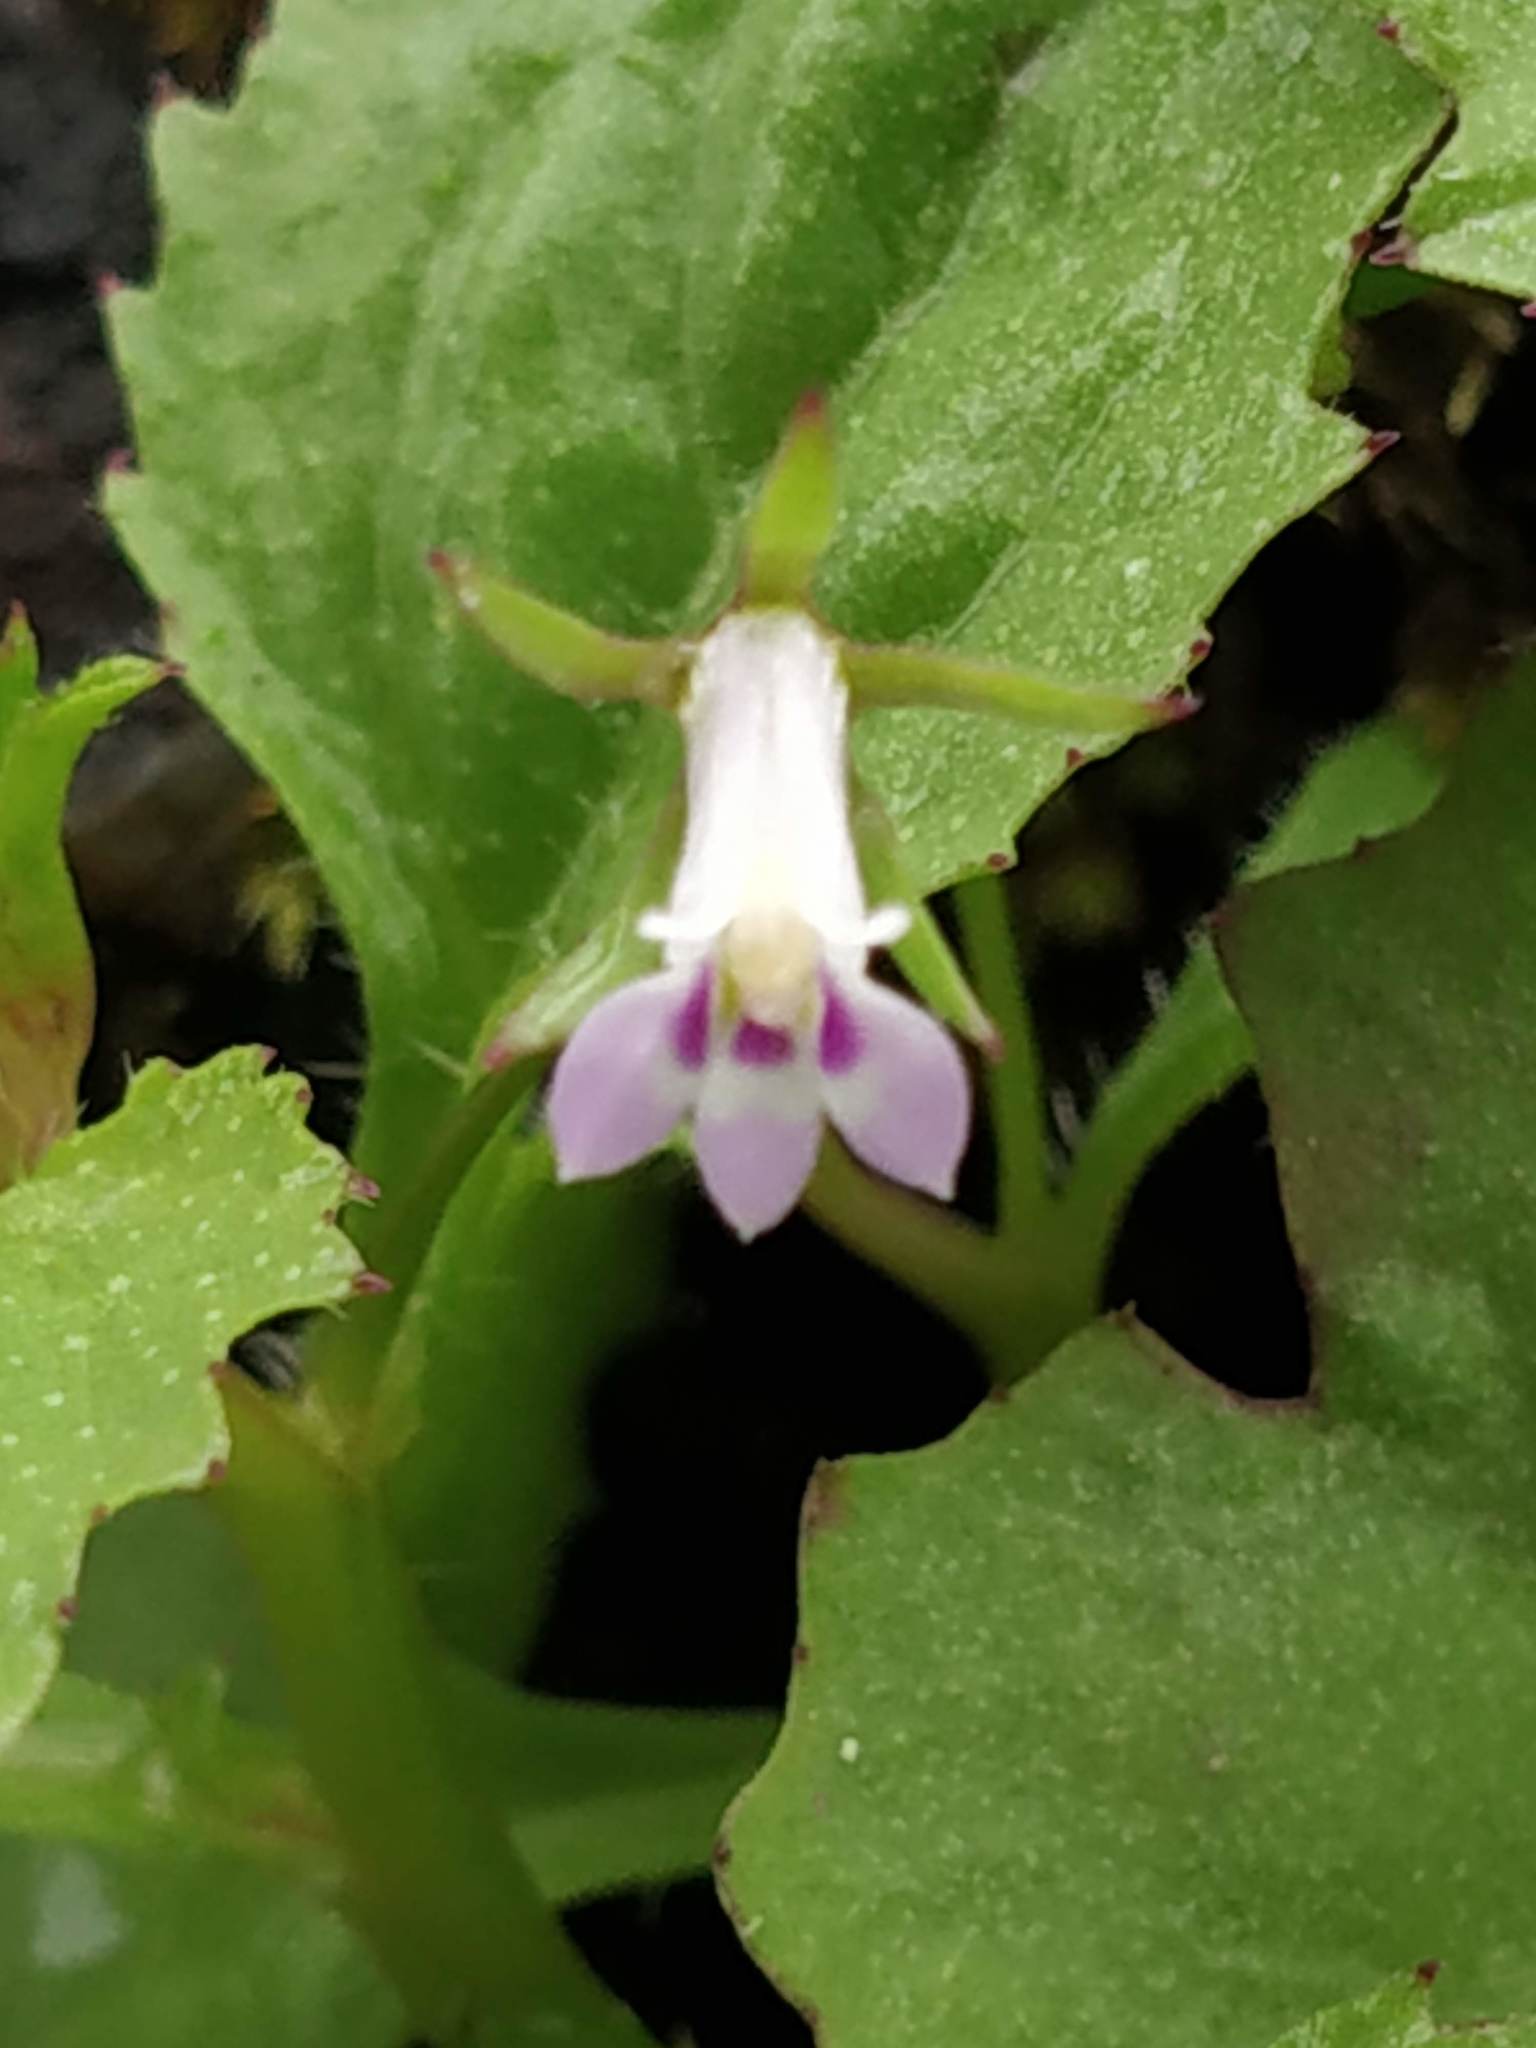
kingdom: Plantae
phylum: Tracheophyta
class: Magnoliopsida
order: Asterales
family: Campanulaceae
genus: Lobelia
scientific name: Lobelia heyneana
